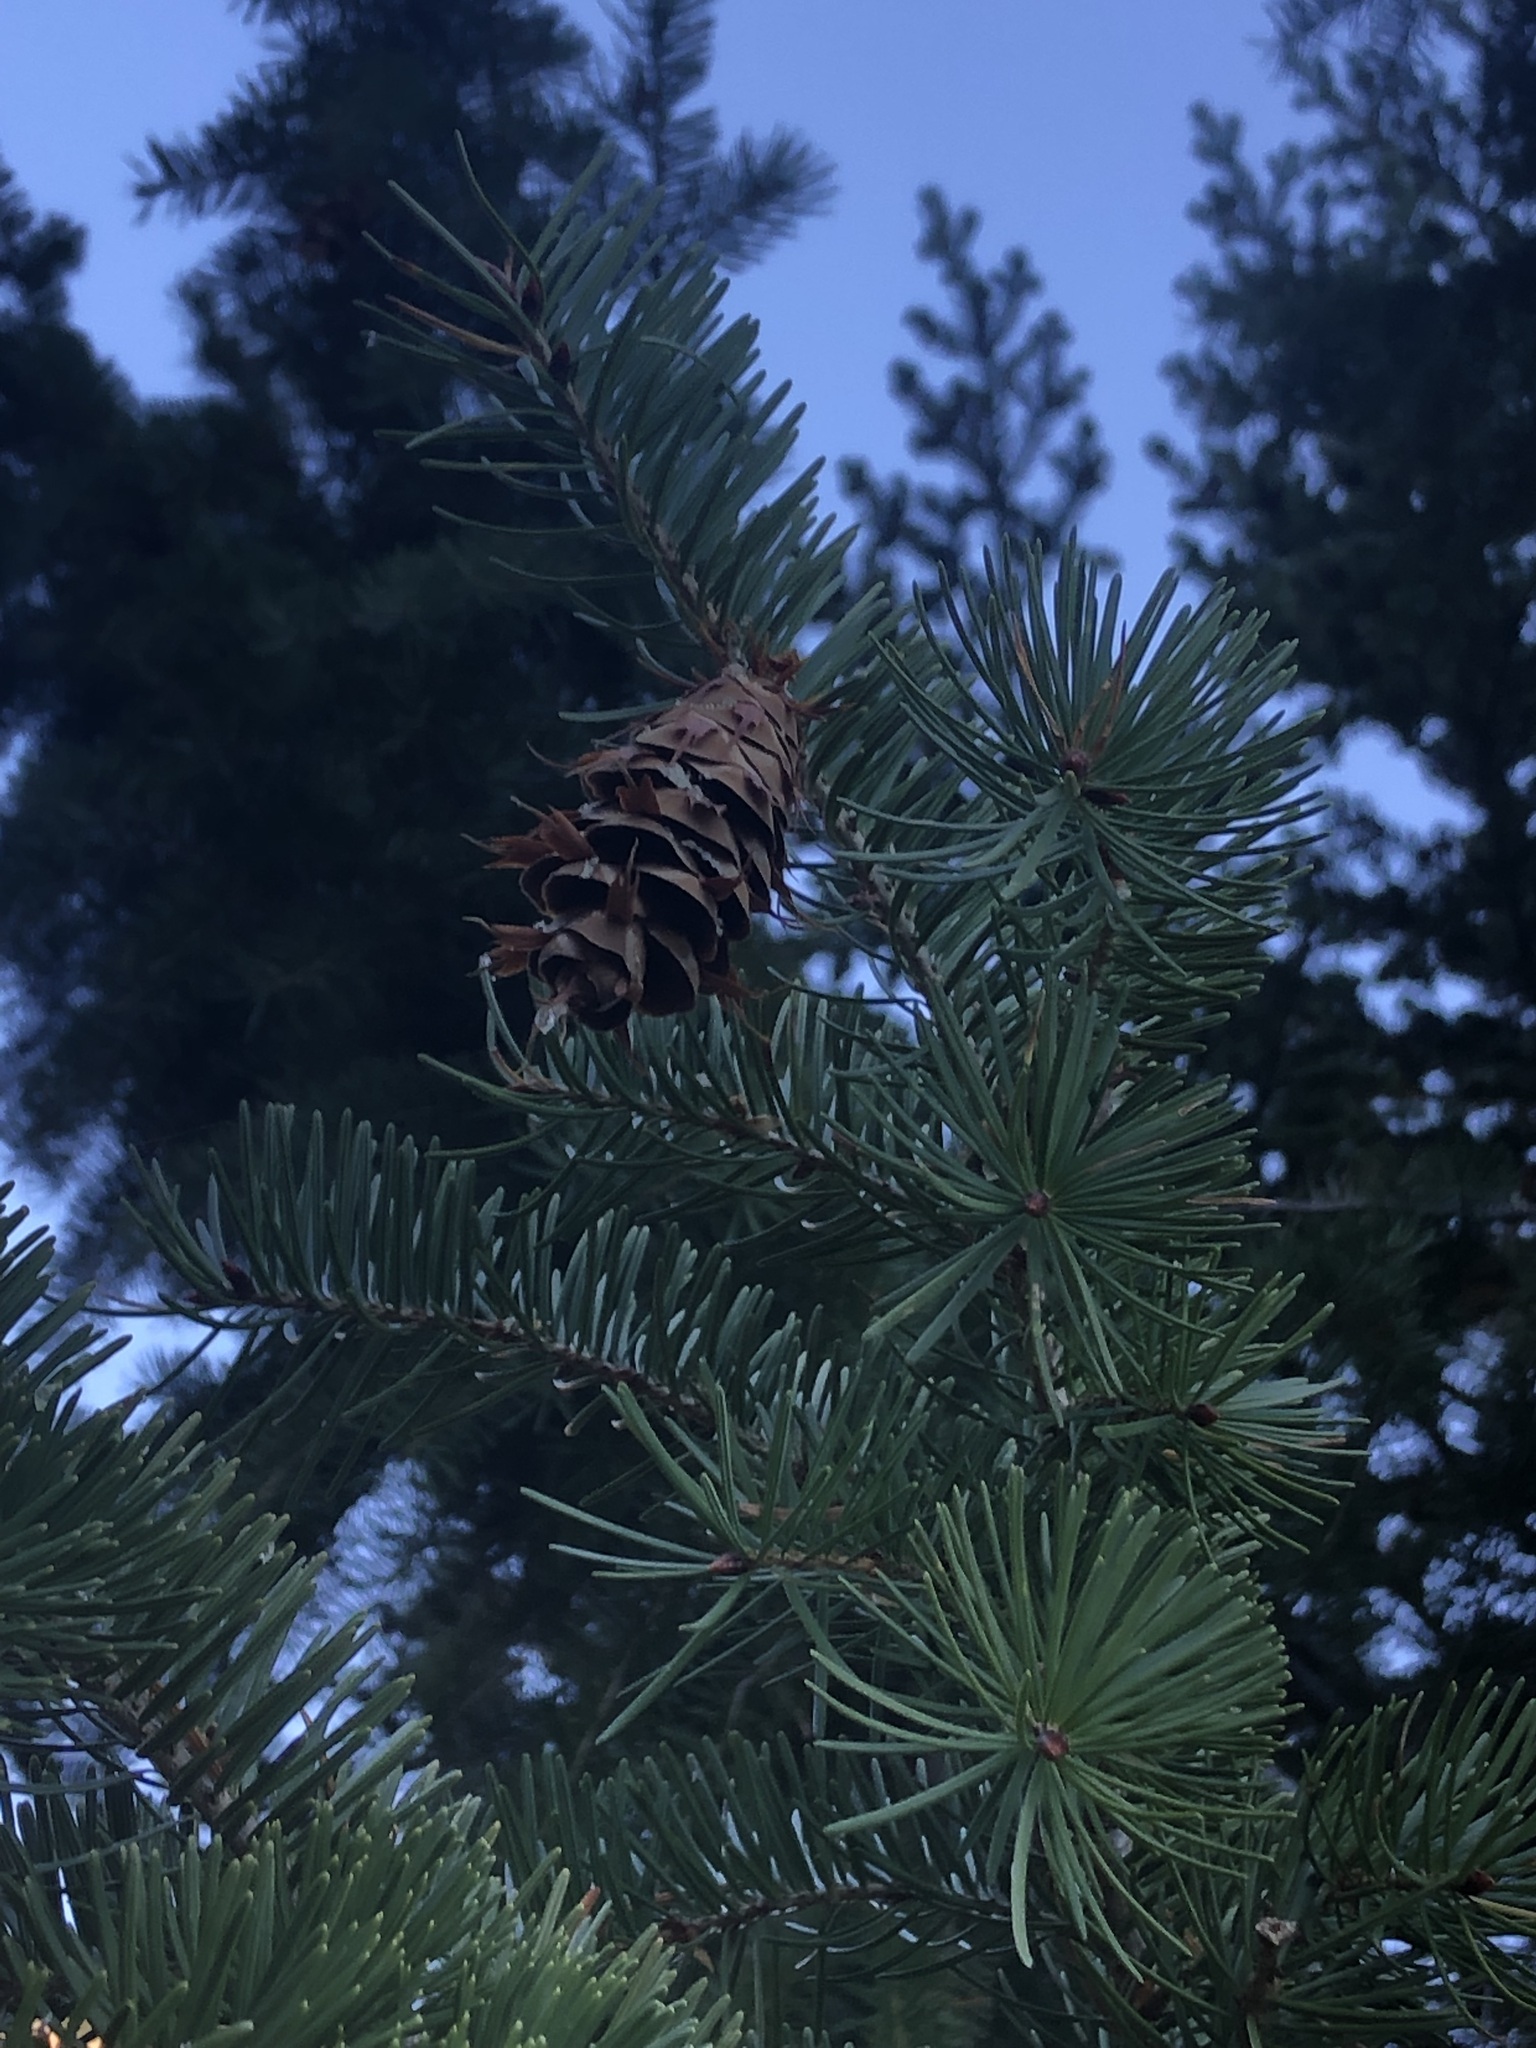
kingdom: Plantae
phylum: Tracheophyta
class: Pinopsida
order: Pinales
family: Pinaceae
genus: Pseudotsuga
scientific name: Pseudotsuga menziesii
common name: Douglas fir
